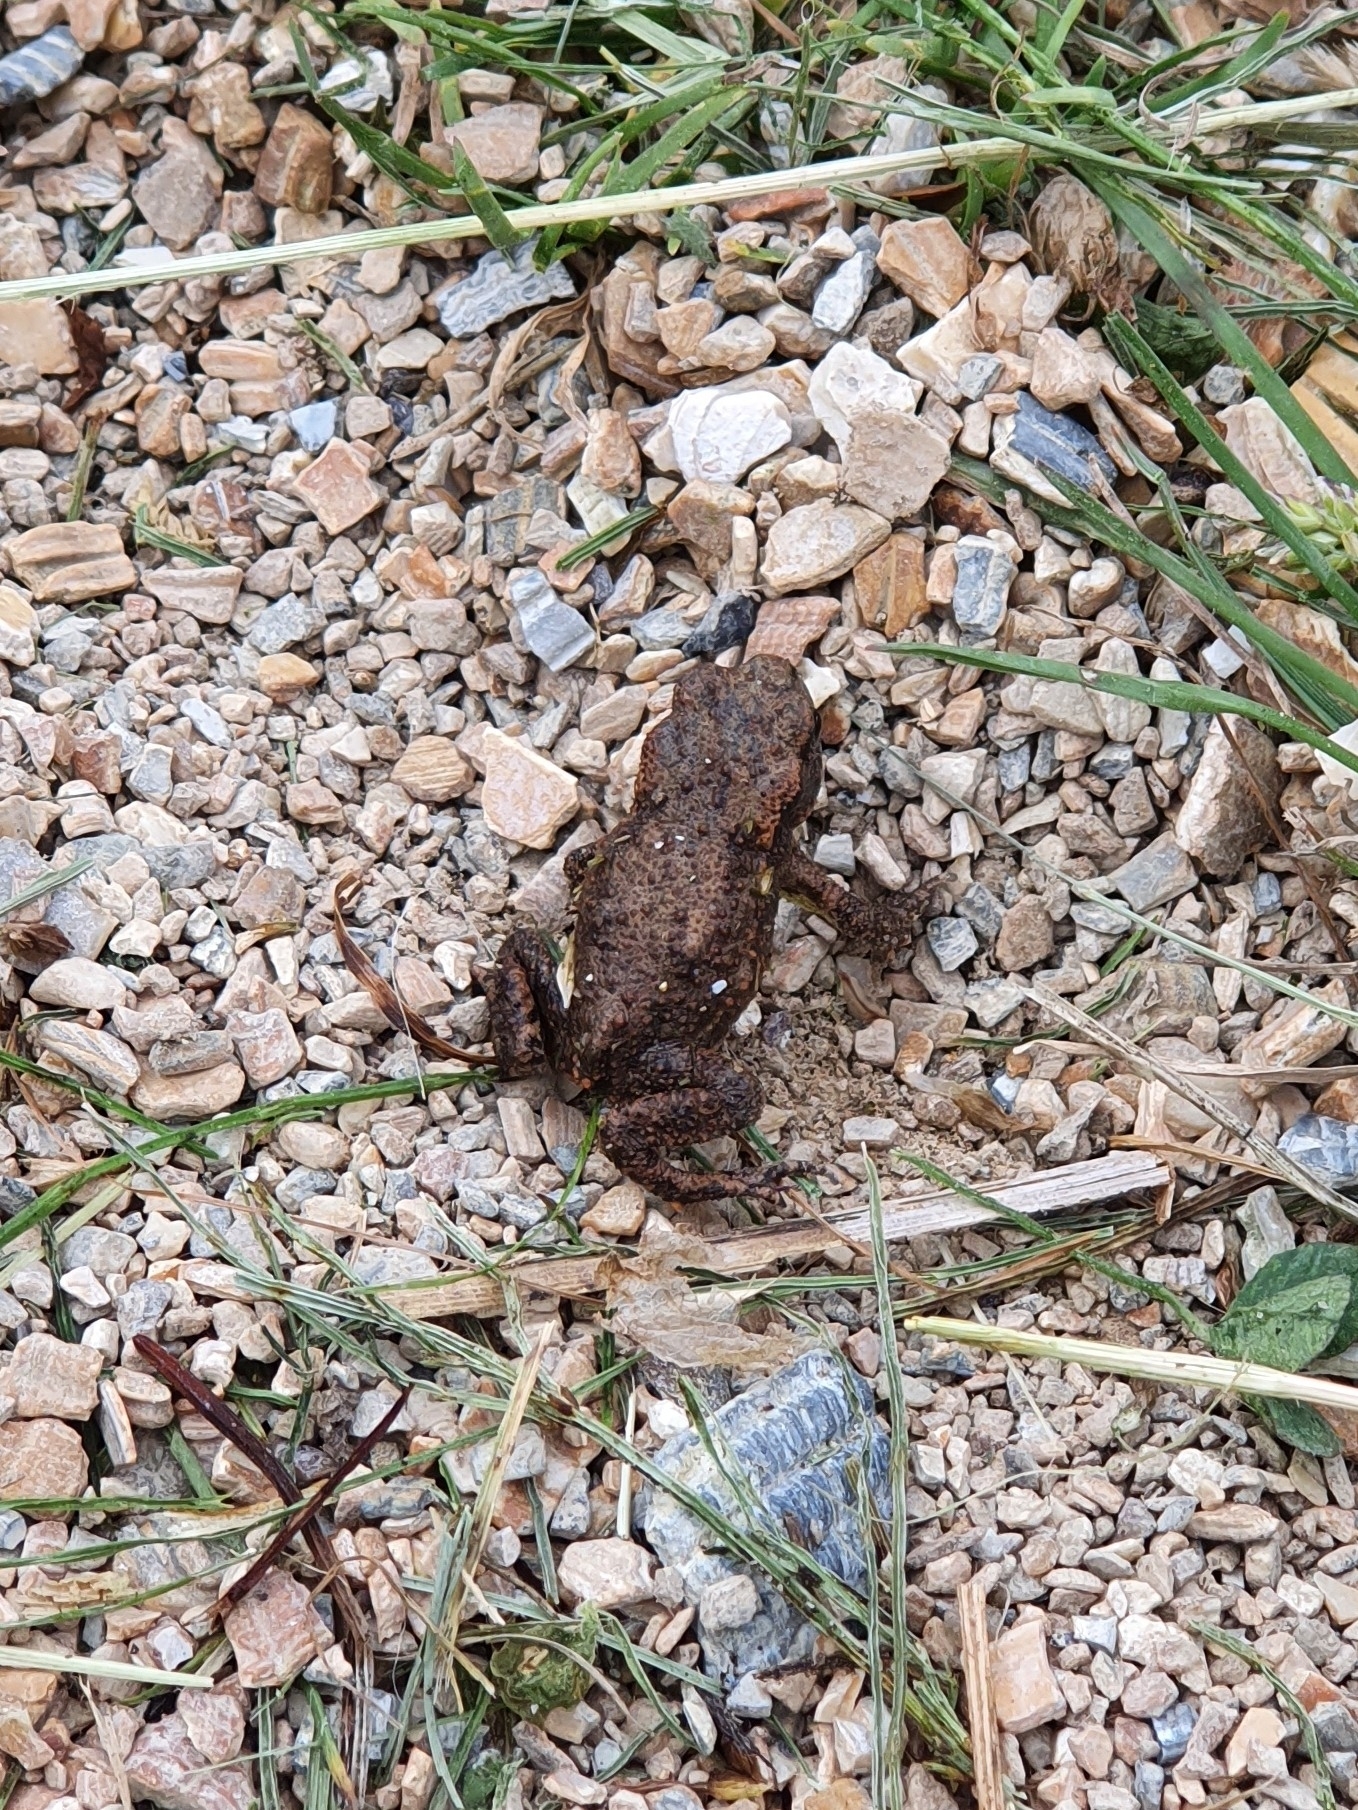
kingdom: Animalia
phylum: Chordata
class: Amphibia
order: Anura
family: Bufonidae
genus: Bufo
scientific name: Bufo bufo
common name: Common toad
